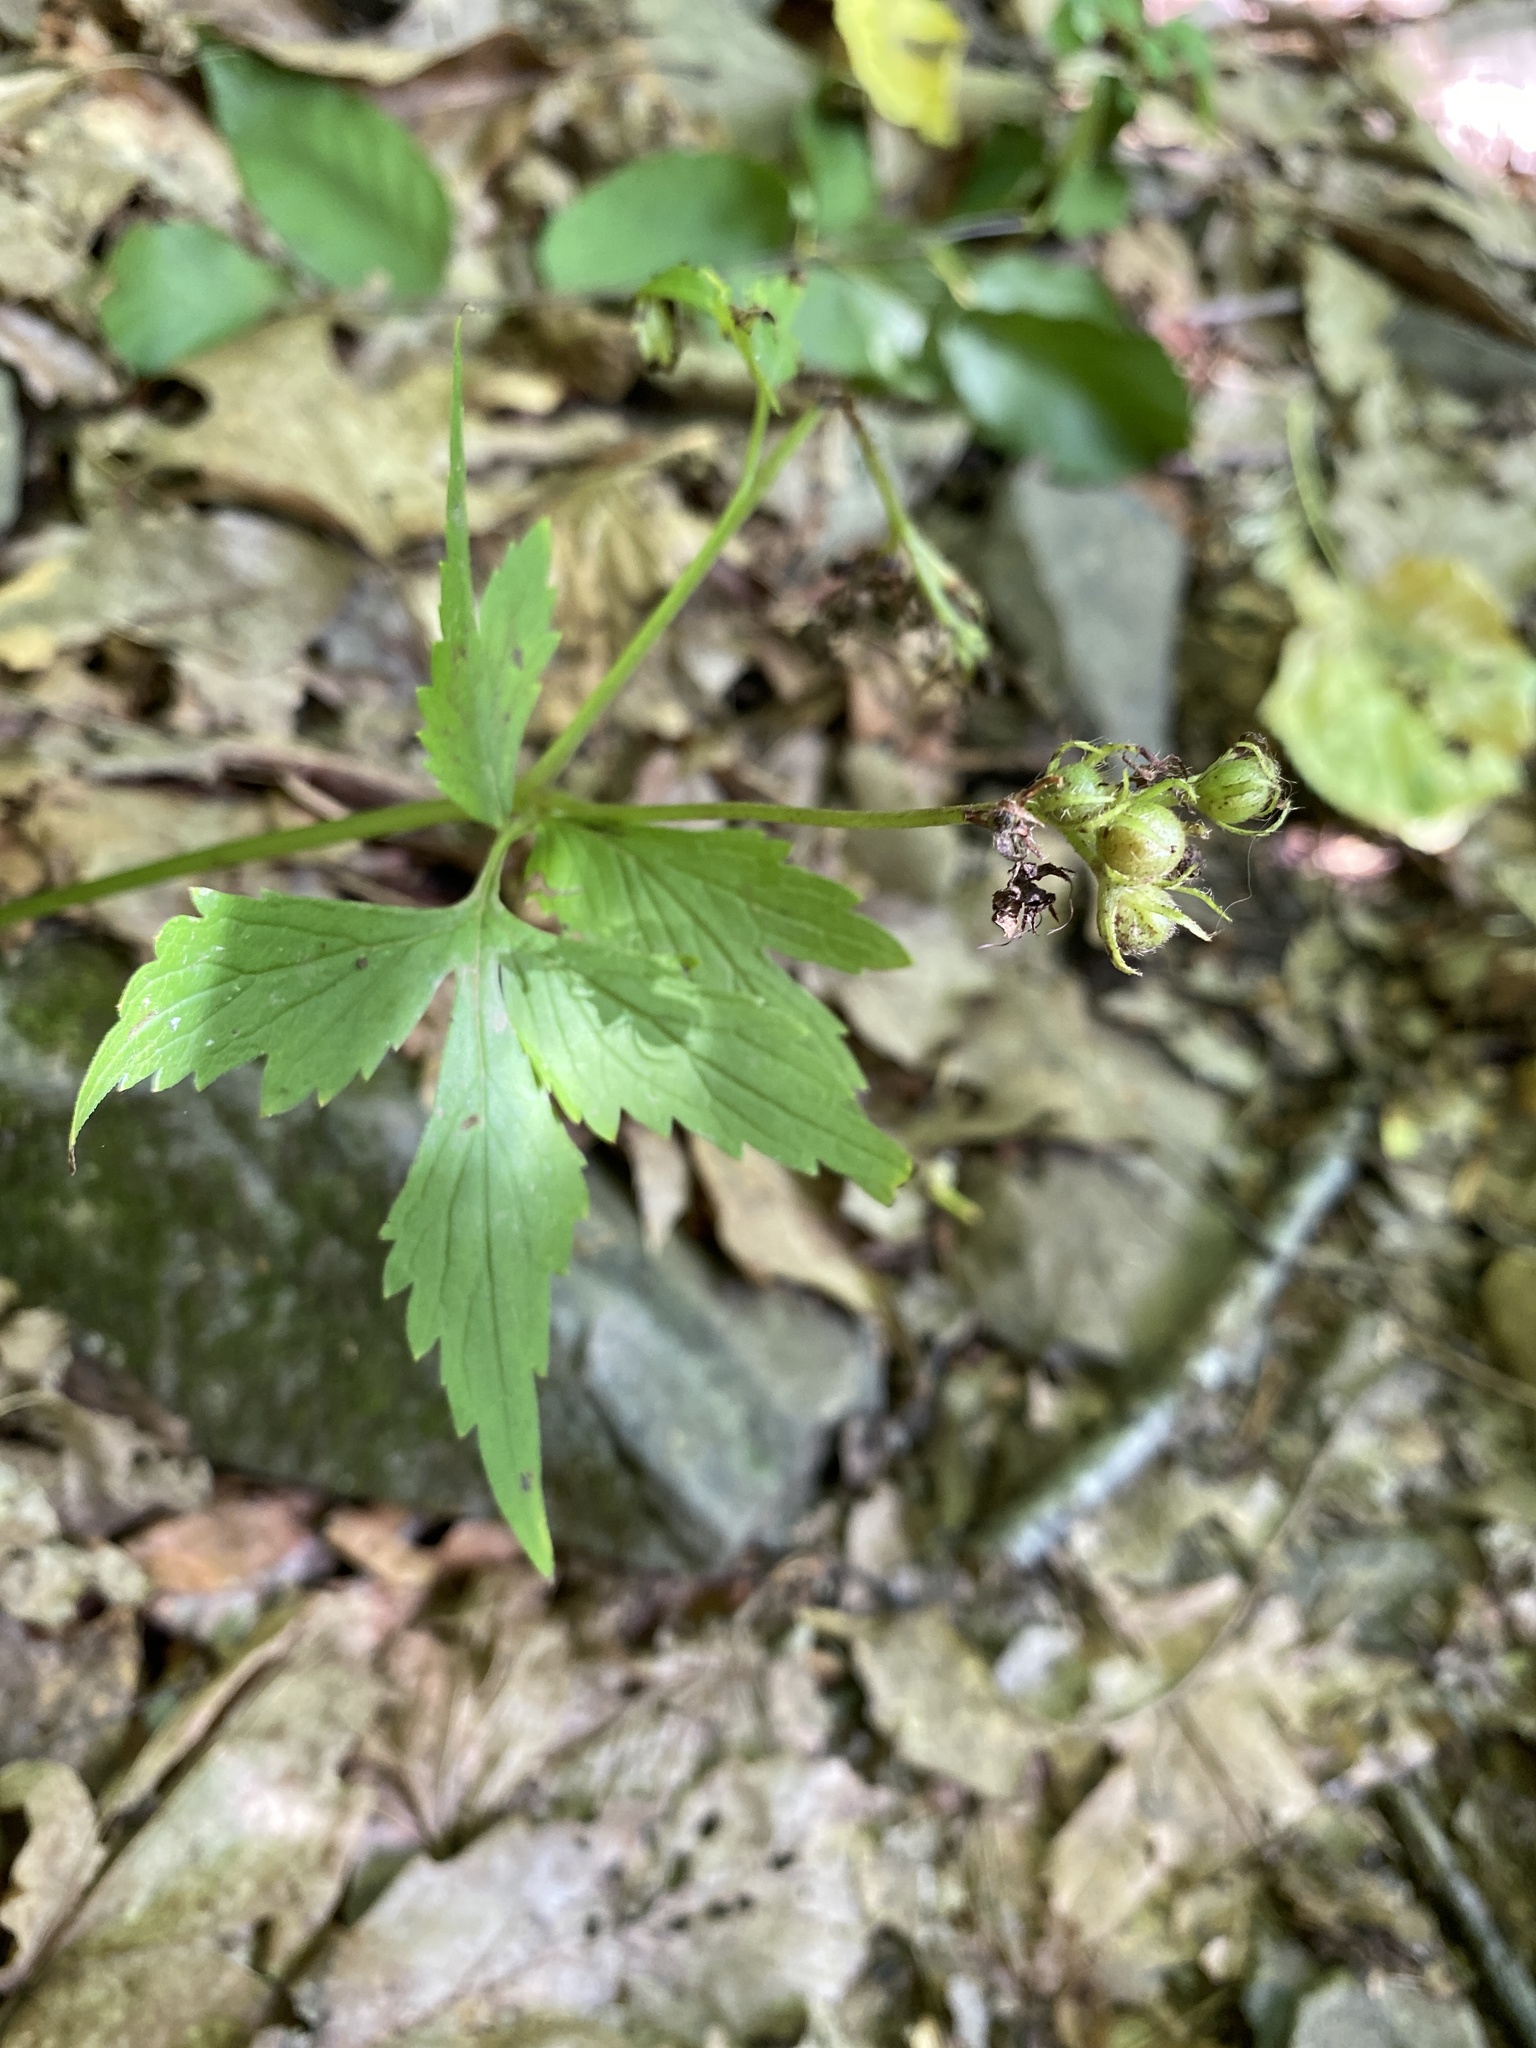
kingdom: Plantae
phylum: Tracheophyta
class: Magnoliopsida
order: Boraginales
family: Hydrophyllaceae
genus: Hydrophyllum
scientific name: Hydrophyllum virginianum
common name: Virginia waterleaf
